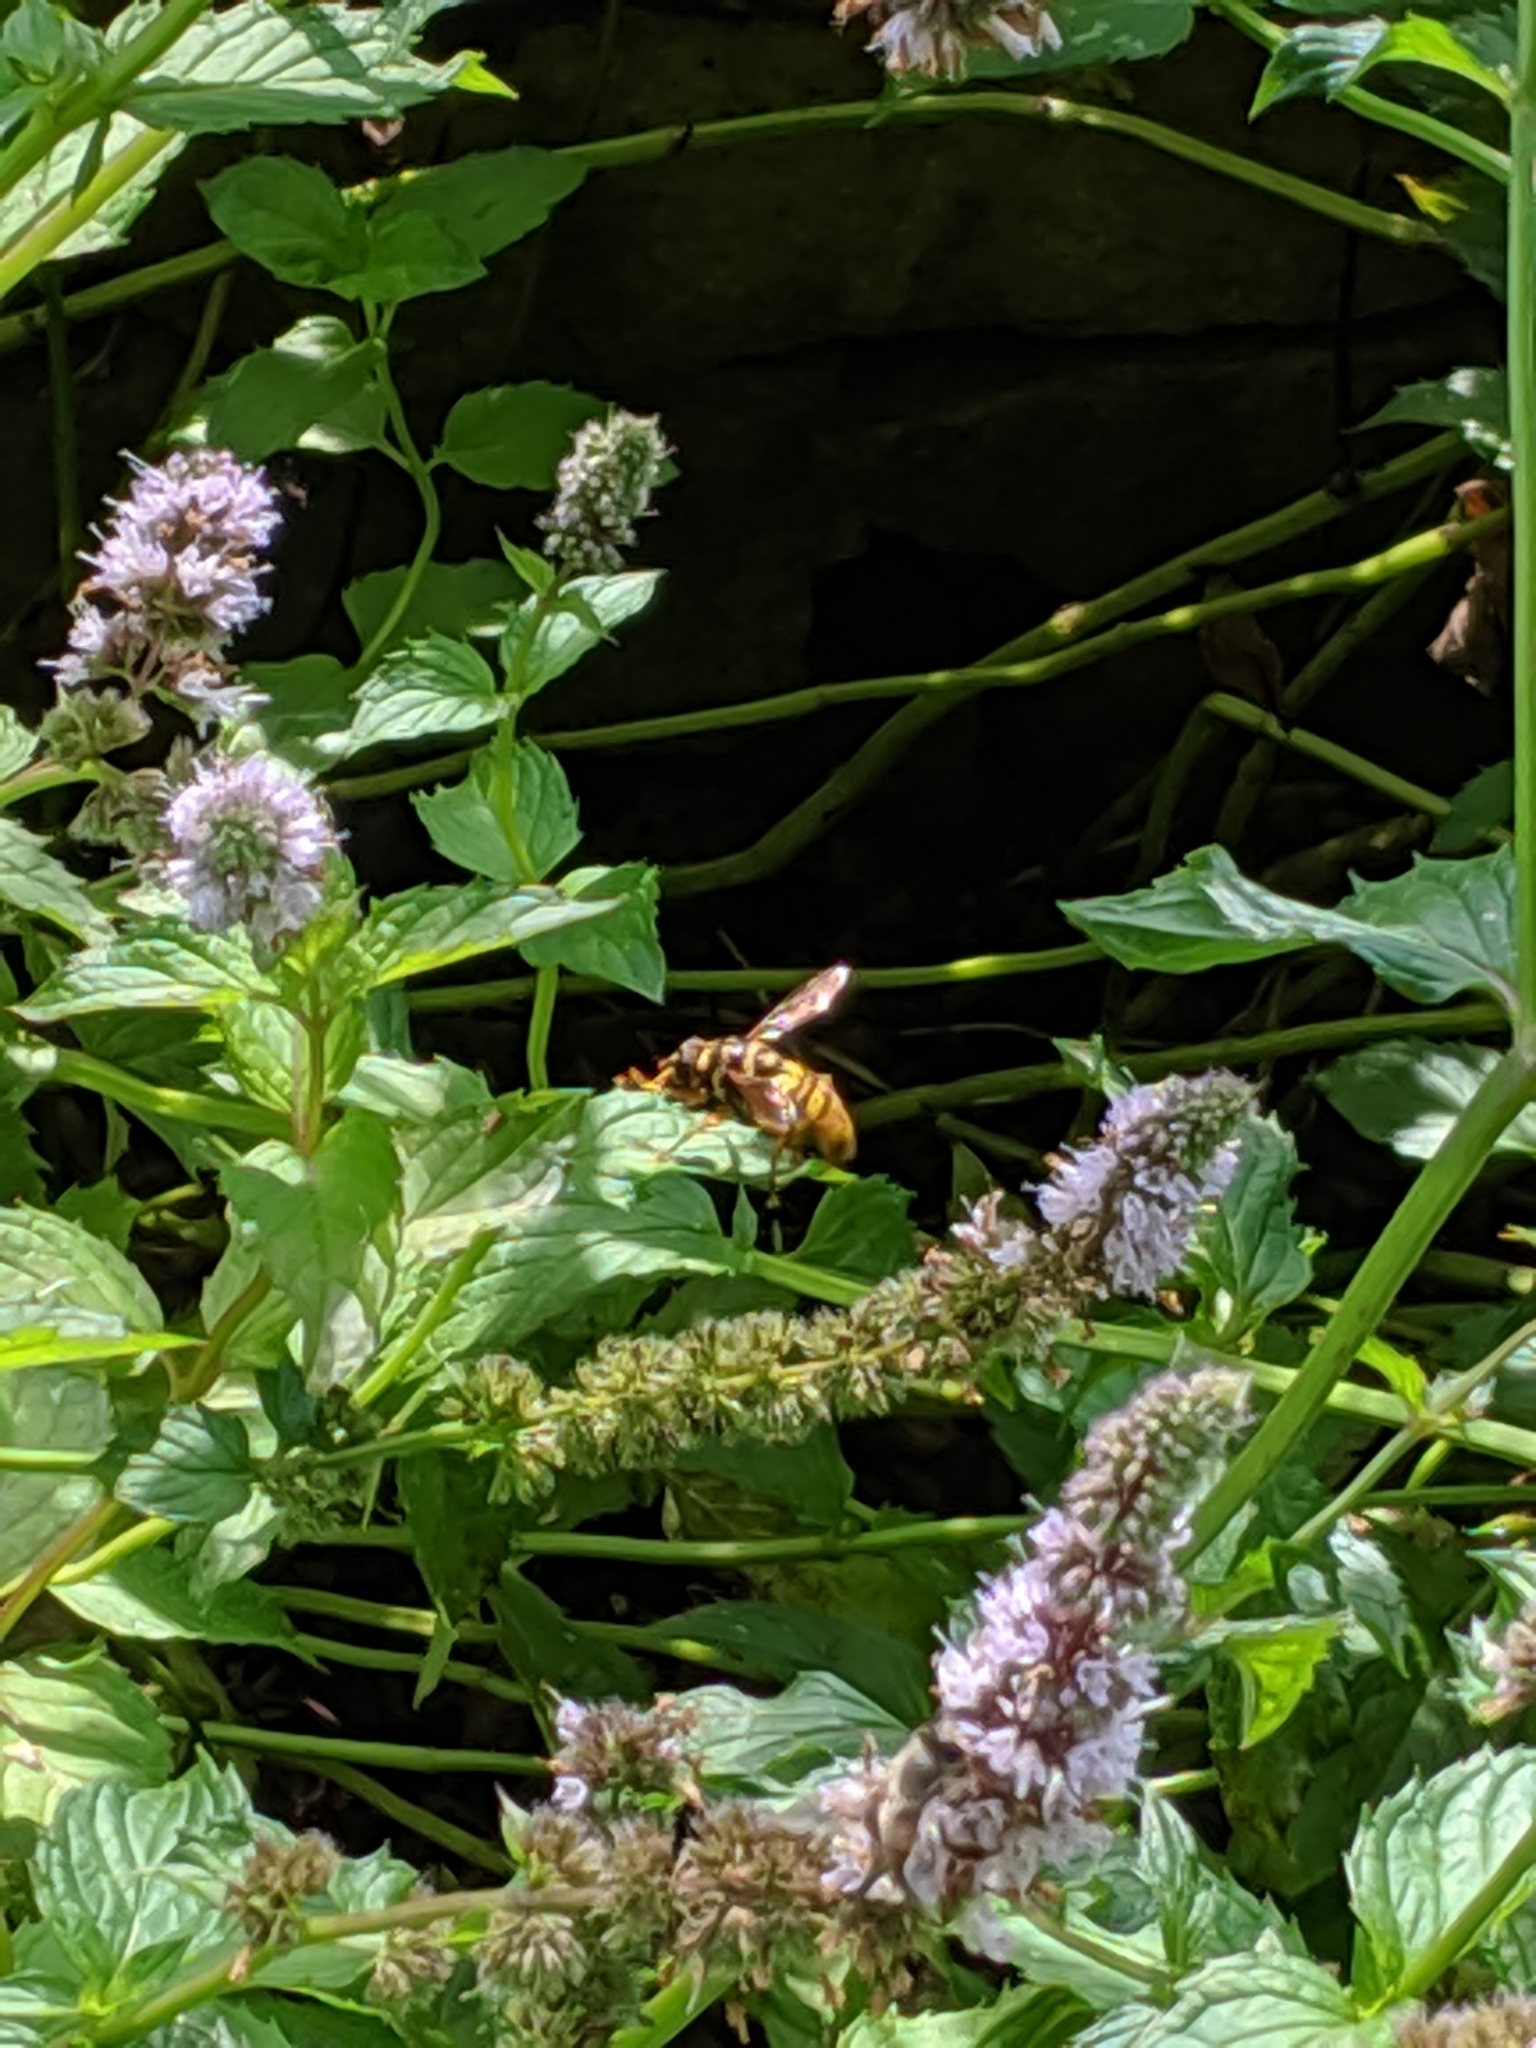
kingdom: Animalia
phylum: Arthropoda
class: Insecta
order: Diptera
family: Syrphidae
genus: Milesia
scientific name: Milesia virginiensis
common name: Virginia giant
